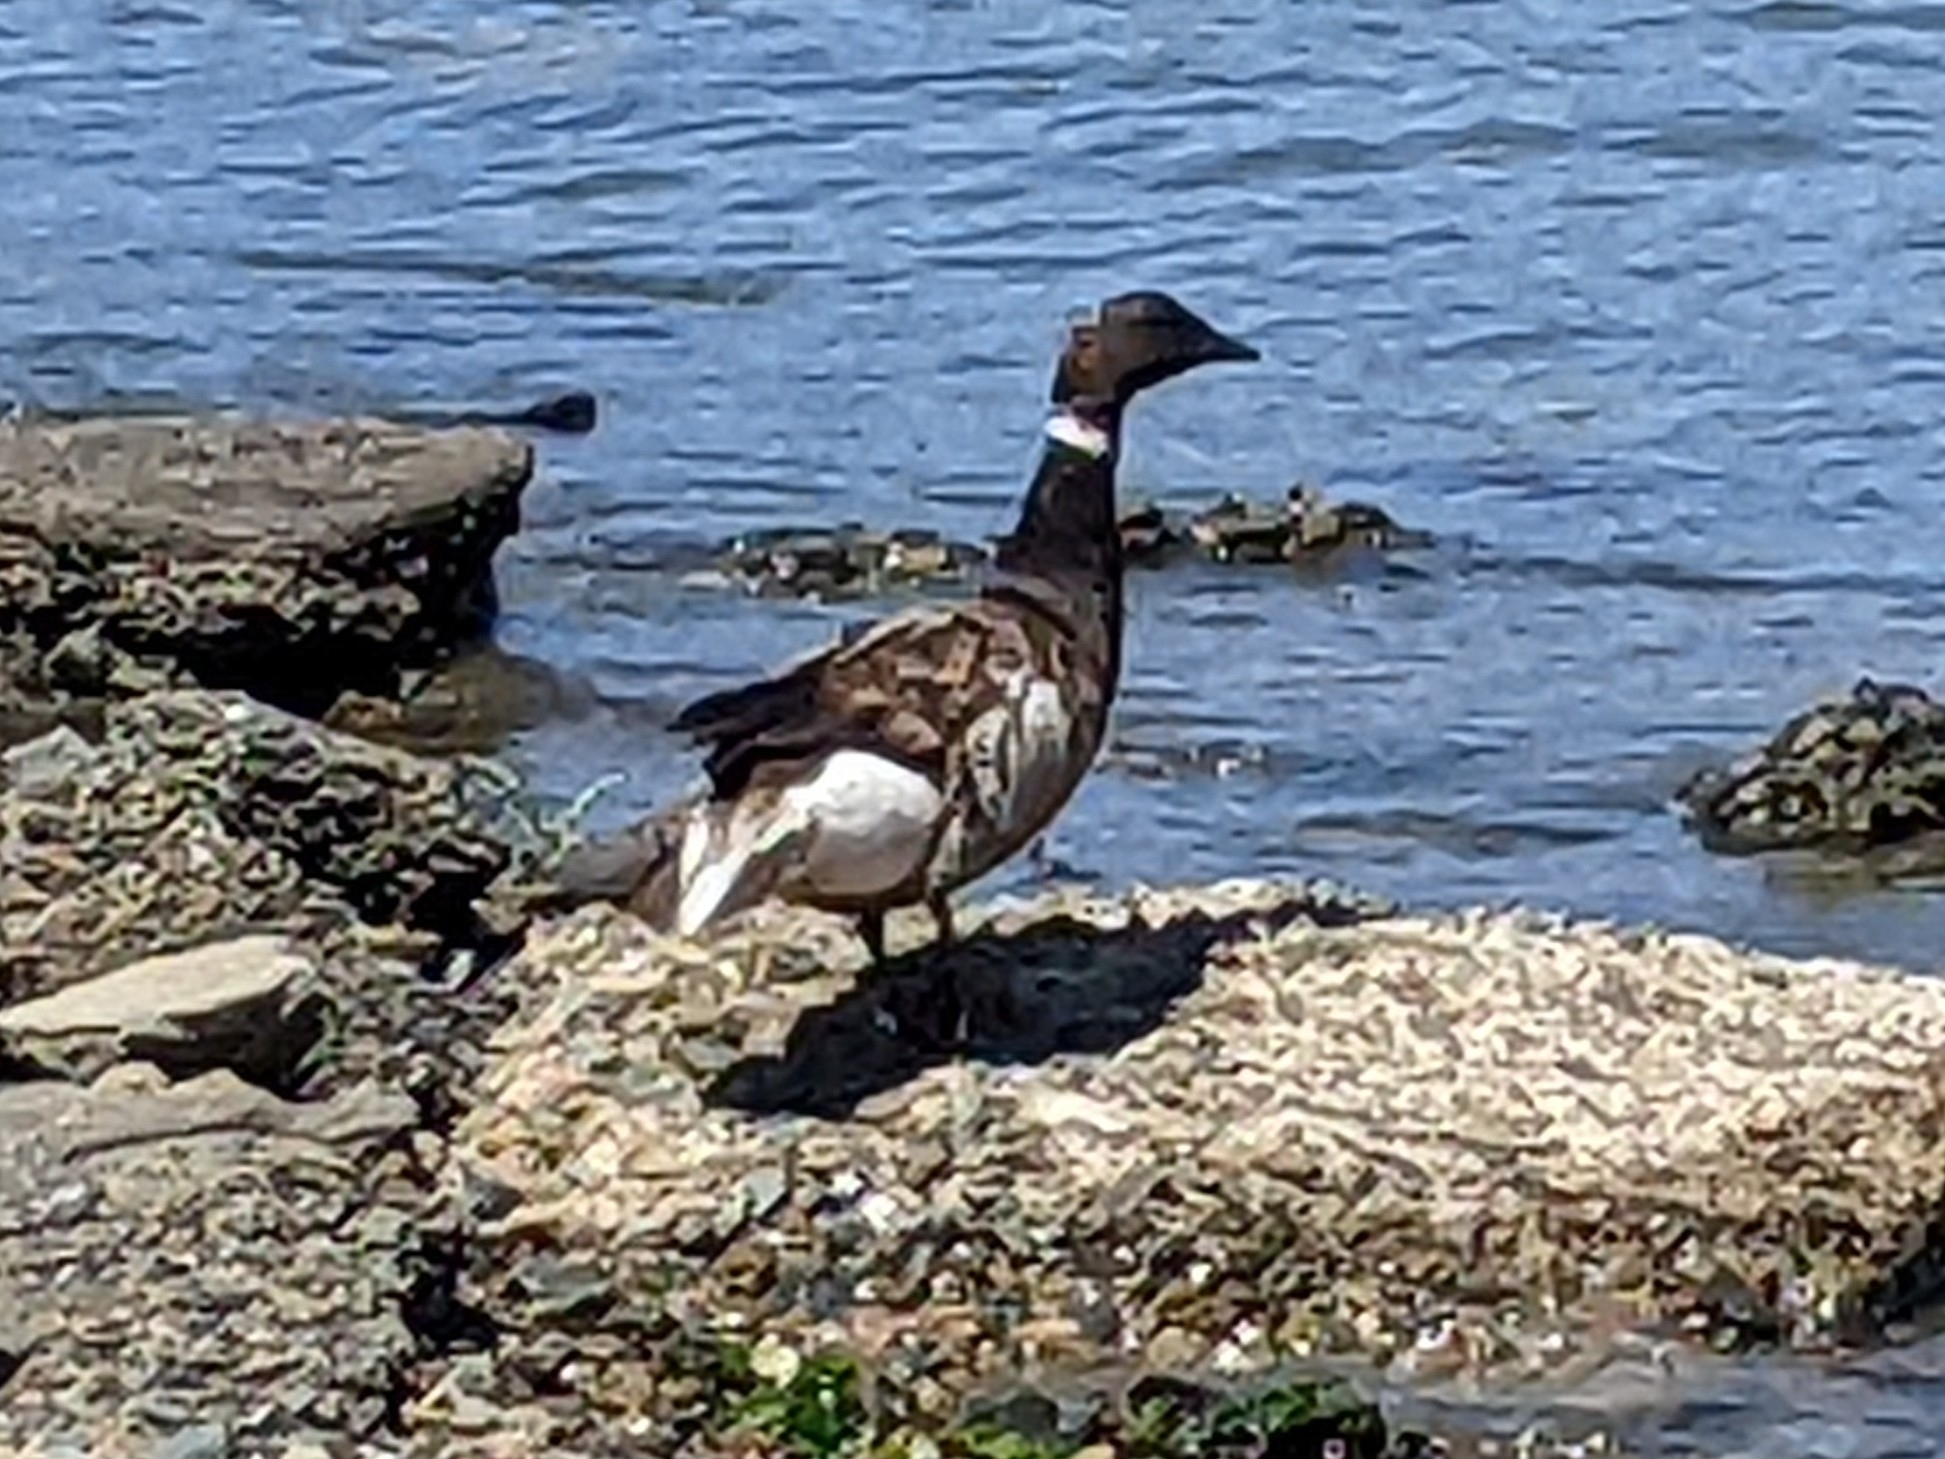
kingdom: Animalia
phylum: Chordata
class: Aves
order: Anseriformes
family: Anatidae
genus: Branta
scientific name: Branta bernicla
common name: Brant goose
